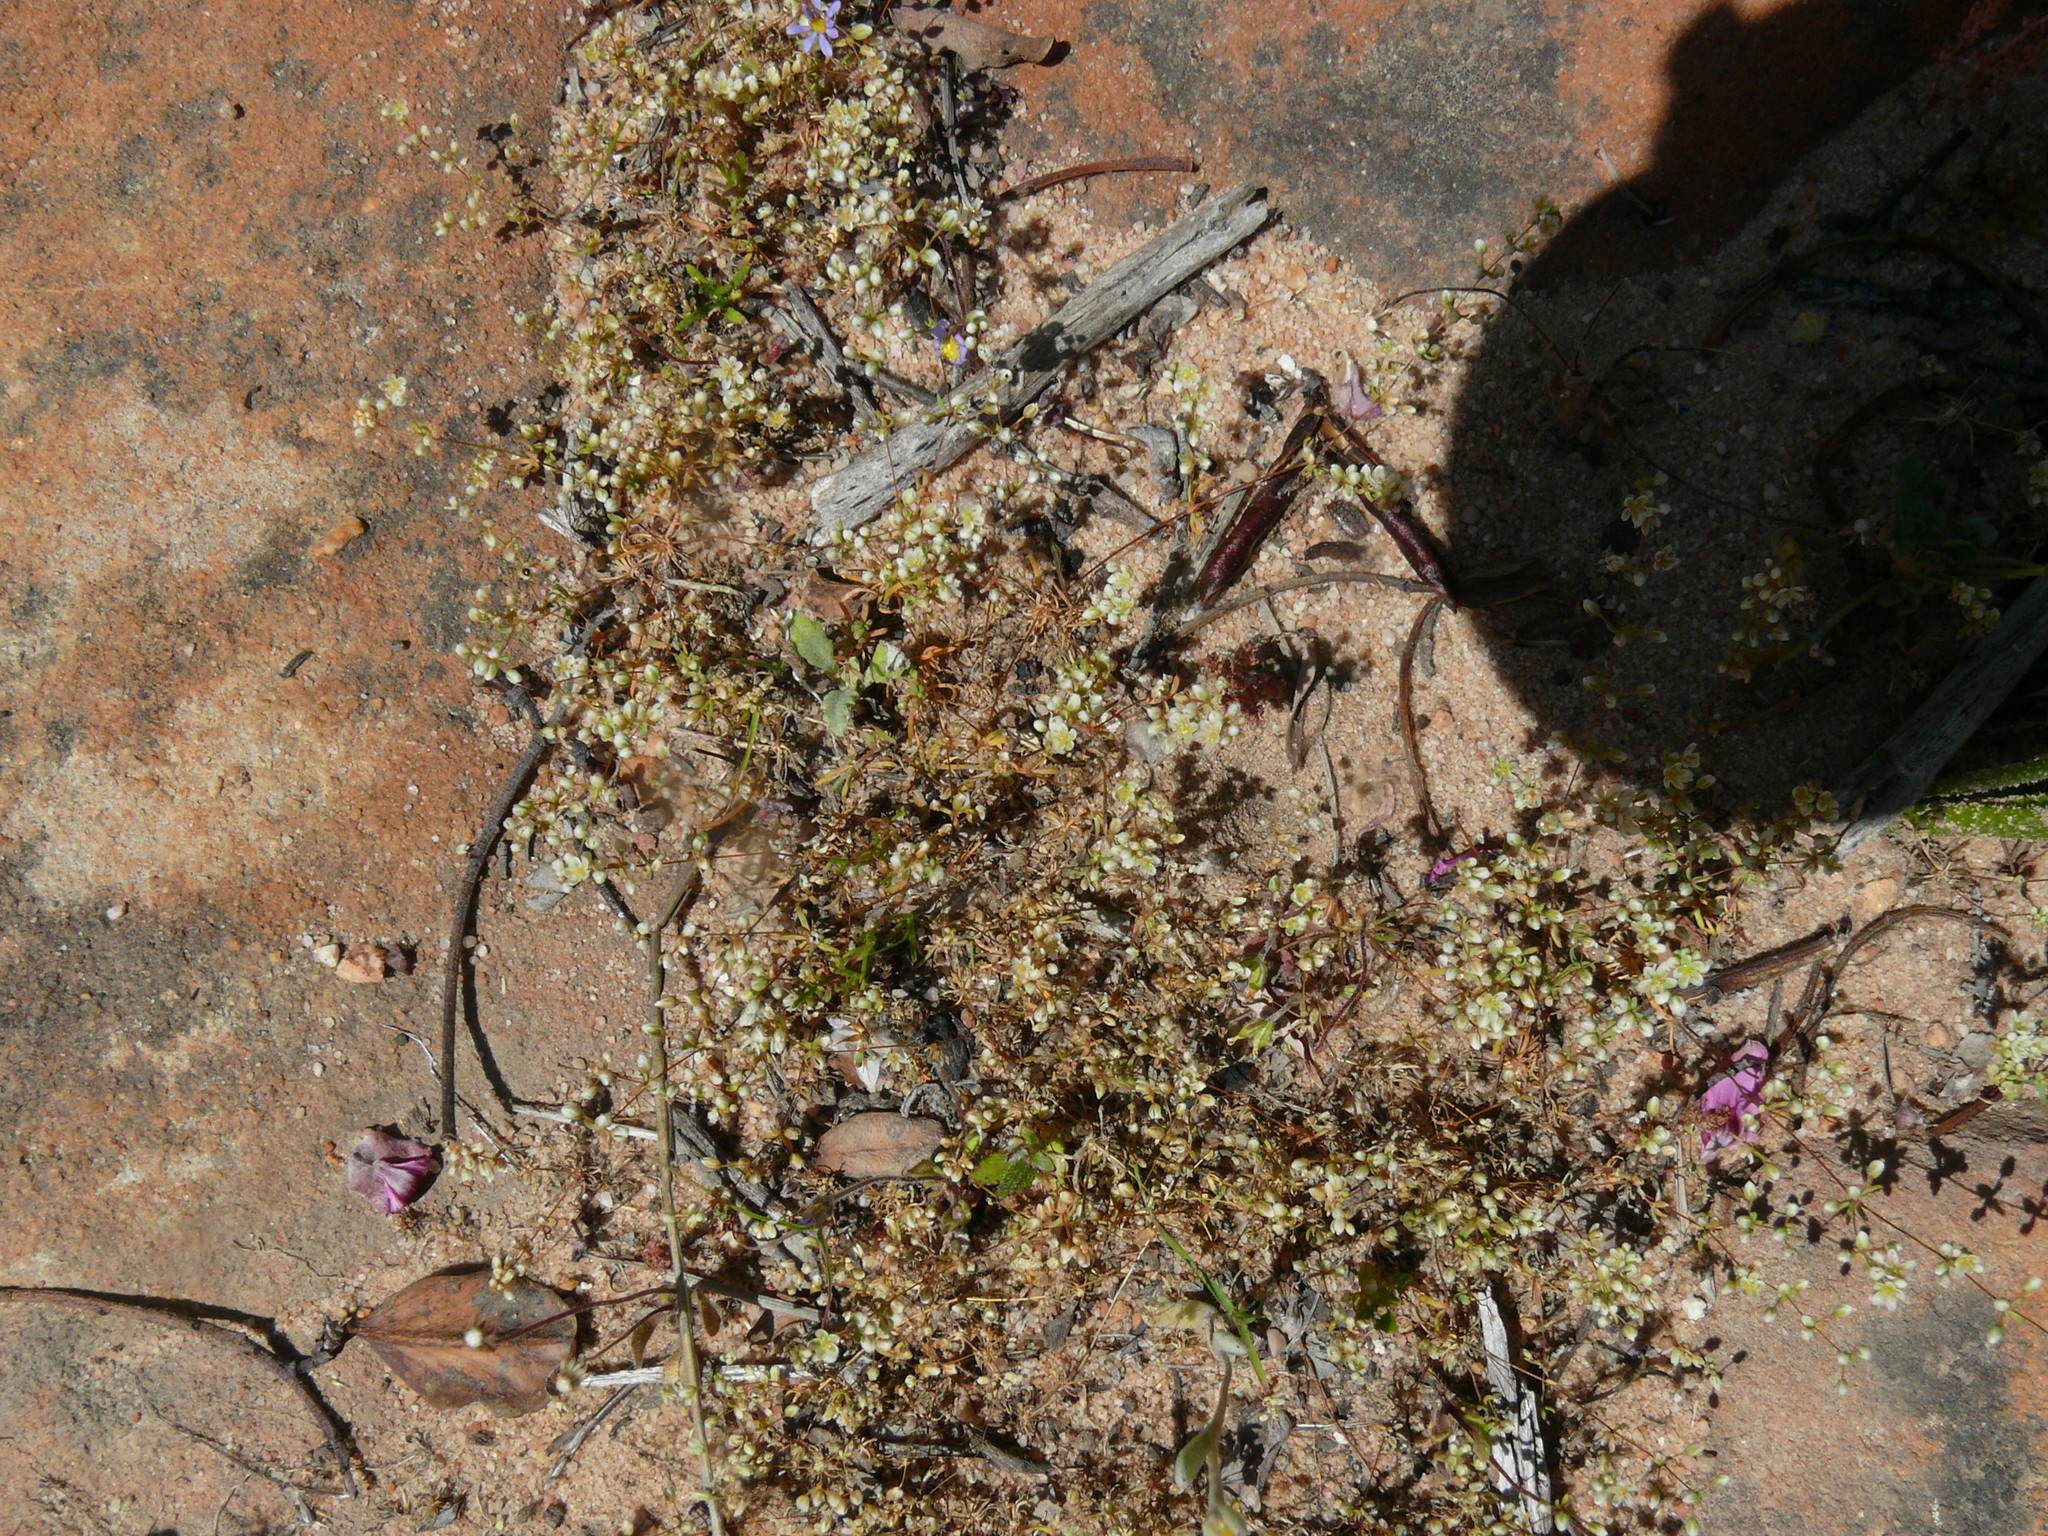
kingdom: Plantae
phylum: Tracheophyta
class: Magnoliopsida
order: Caryophyllales
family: Molluginaceae
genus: Adenogramma
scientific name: Adenogramma mollugo
